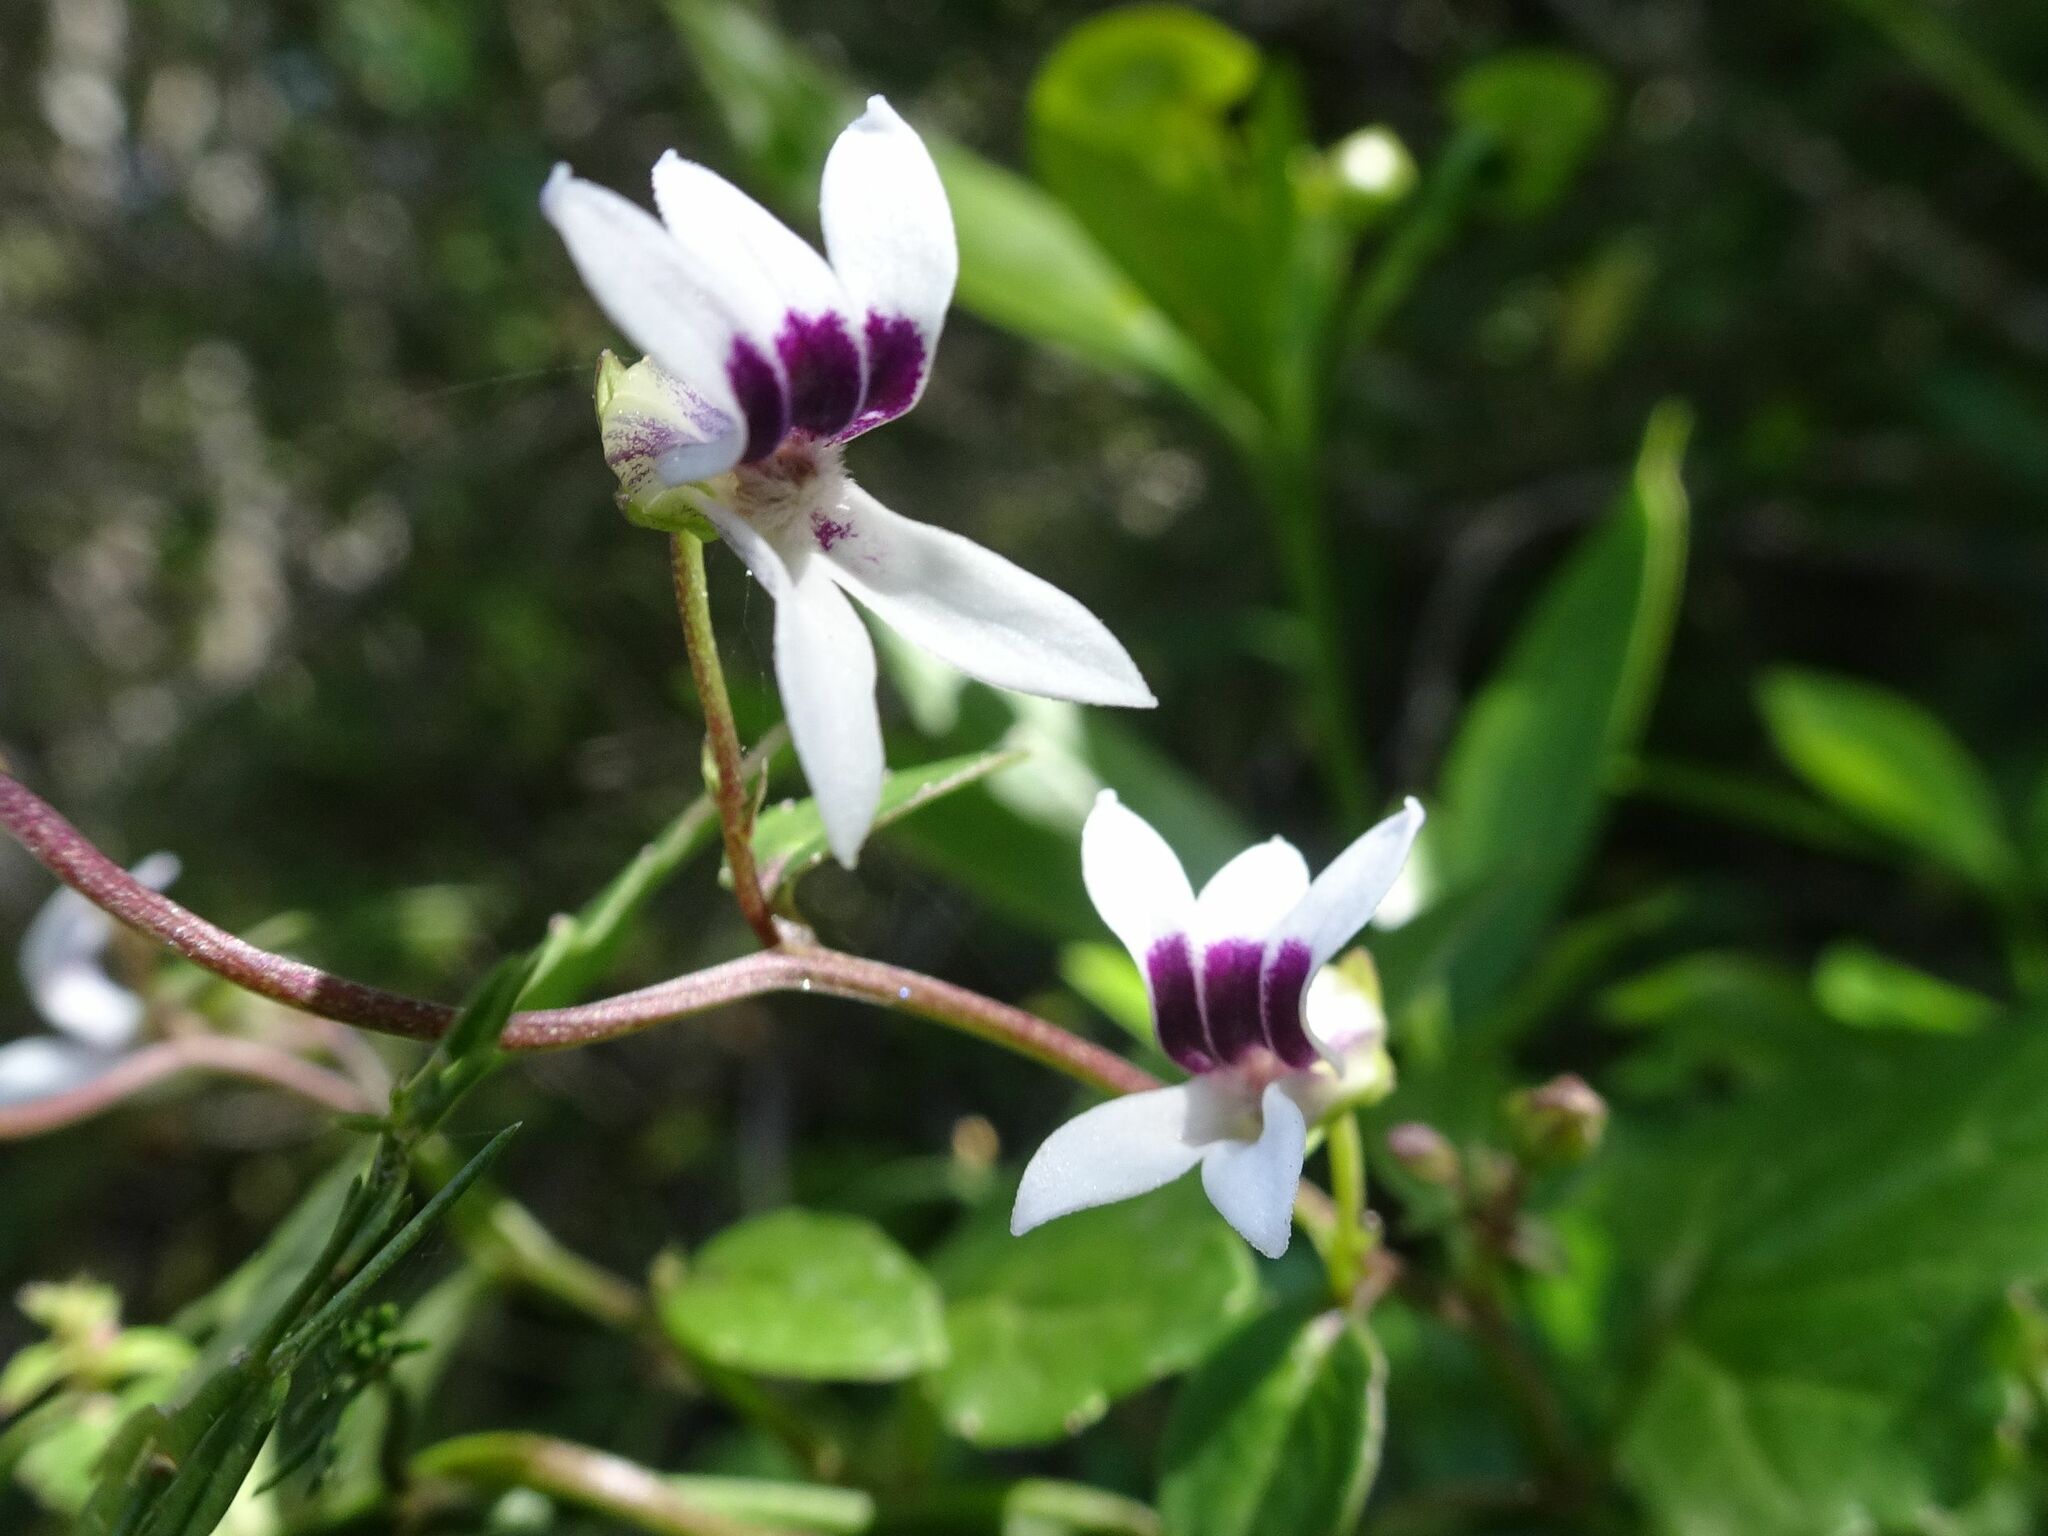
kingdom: Plantae
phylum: Tracheophyta
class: Magnoliopsida
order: Asterales
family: Campanulaceae
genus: Cyphia
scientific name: Cyphia sylvatica
